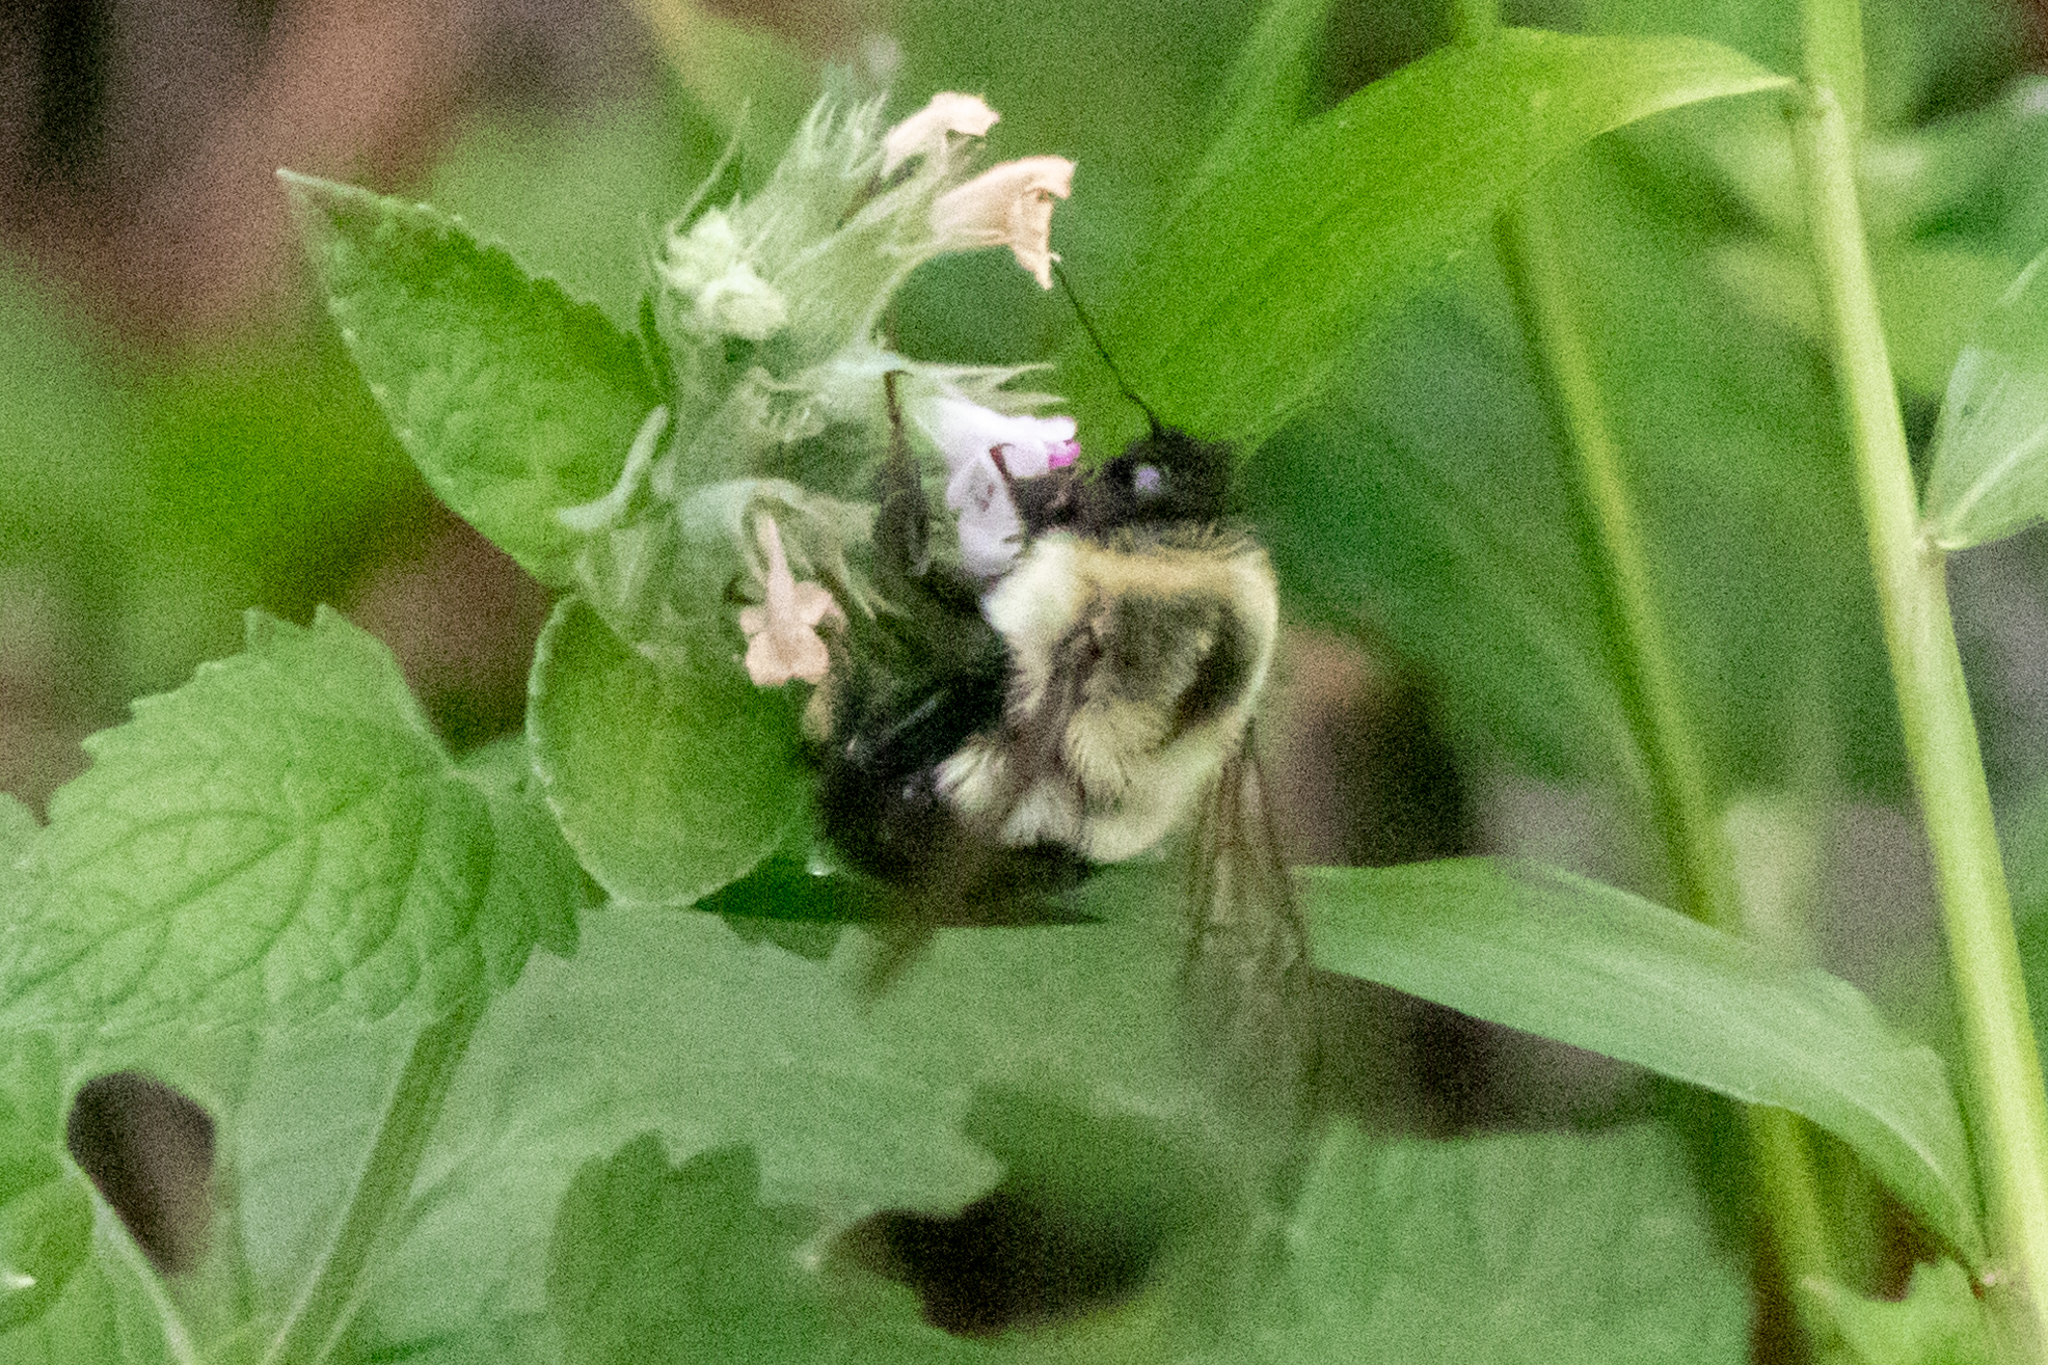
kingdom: Animalia
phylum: Arthropoda
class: Insecta
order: Hymenoptera
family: Apidae
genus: Bombus
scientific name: Bombus impatiens
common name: Common eastern bumble bee
